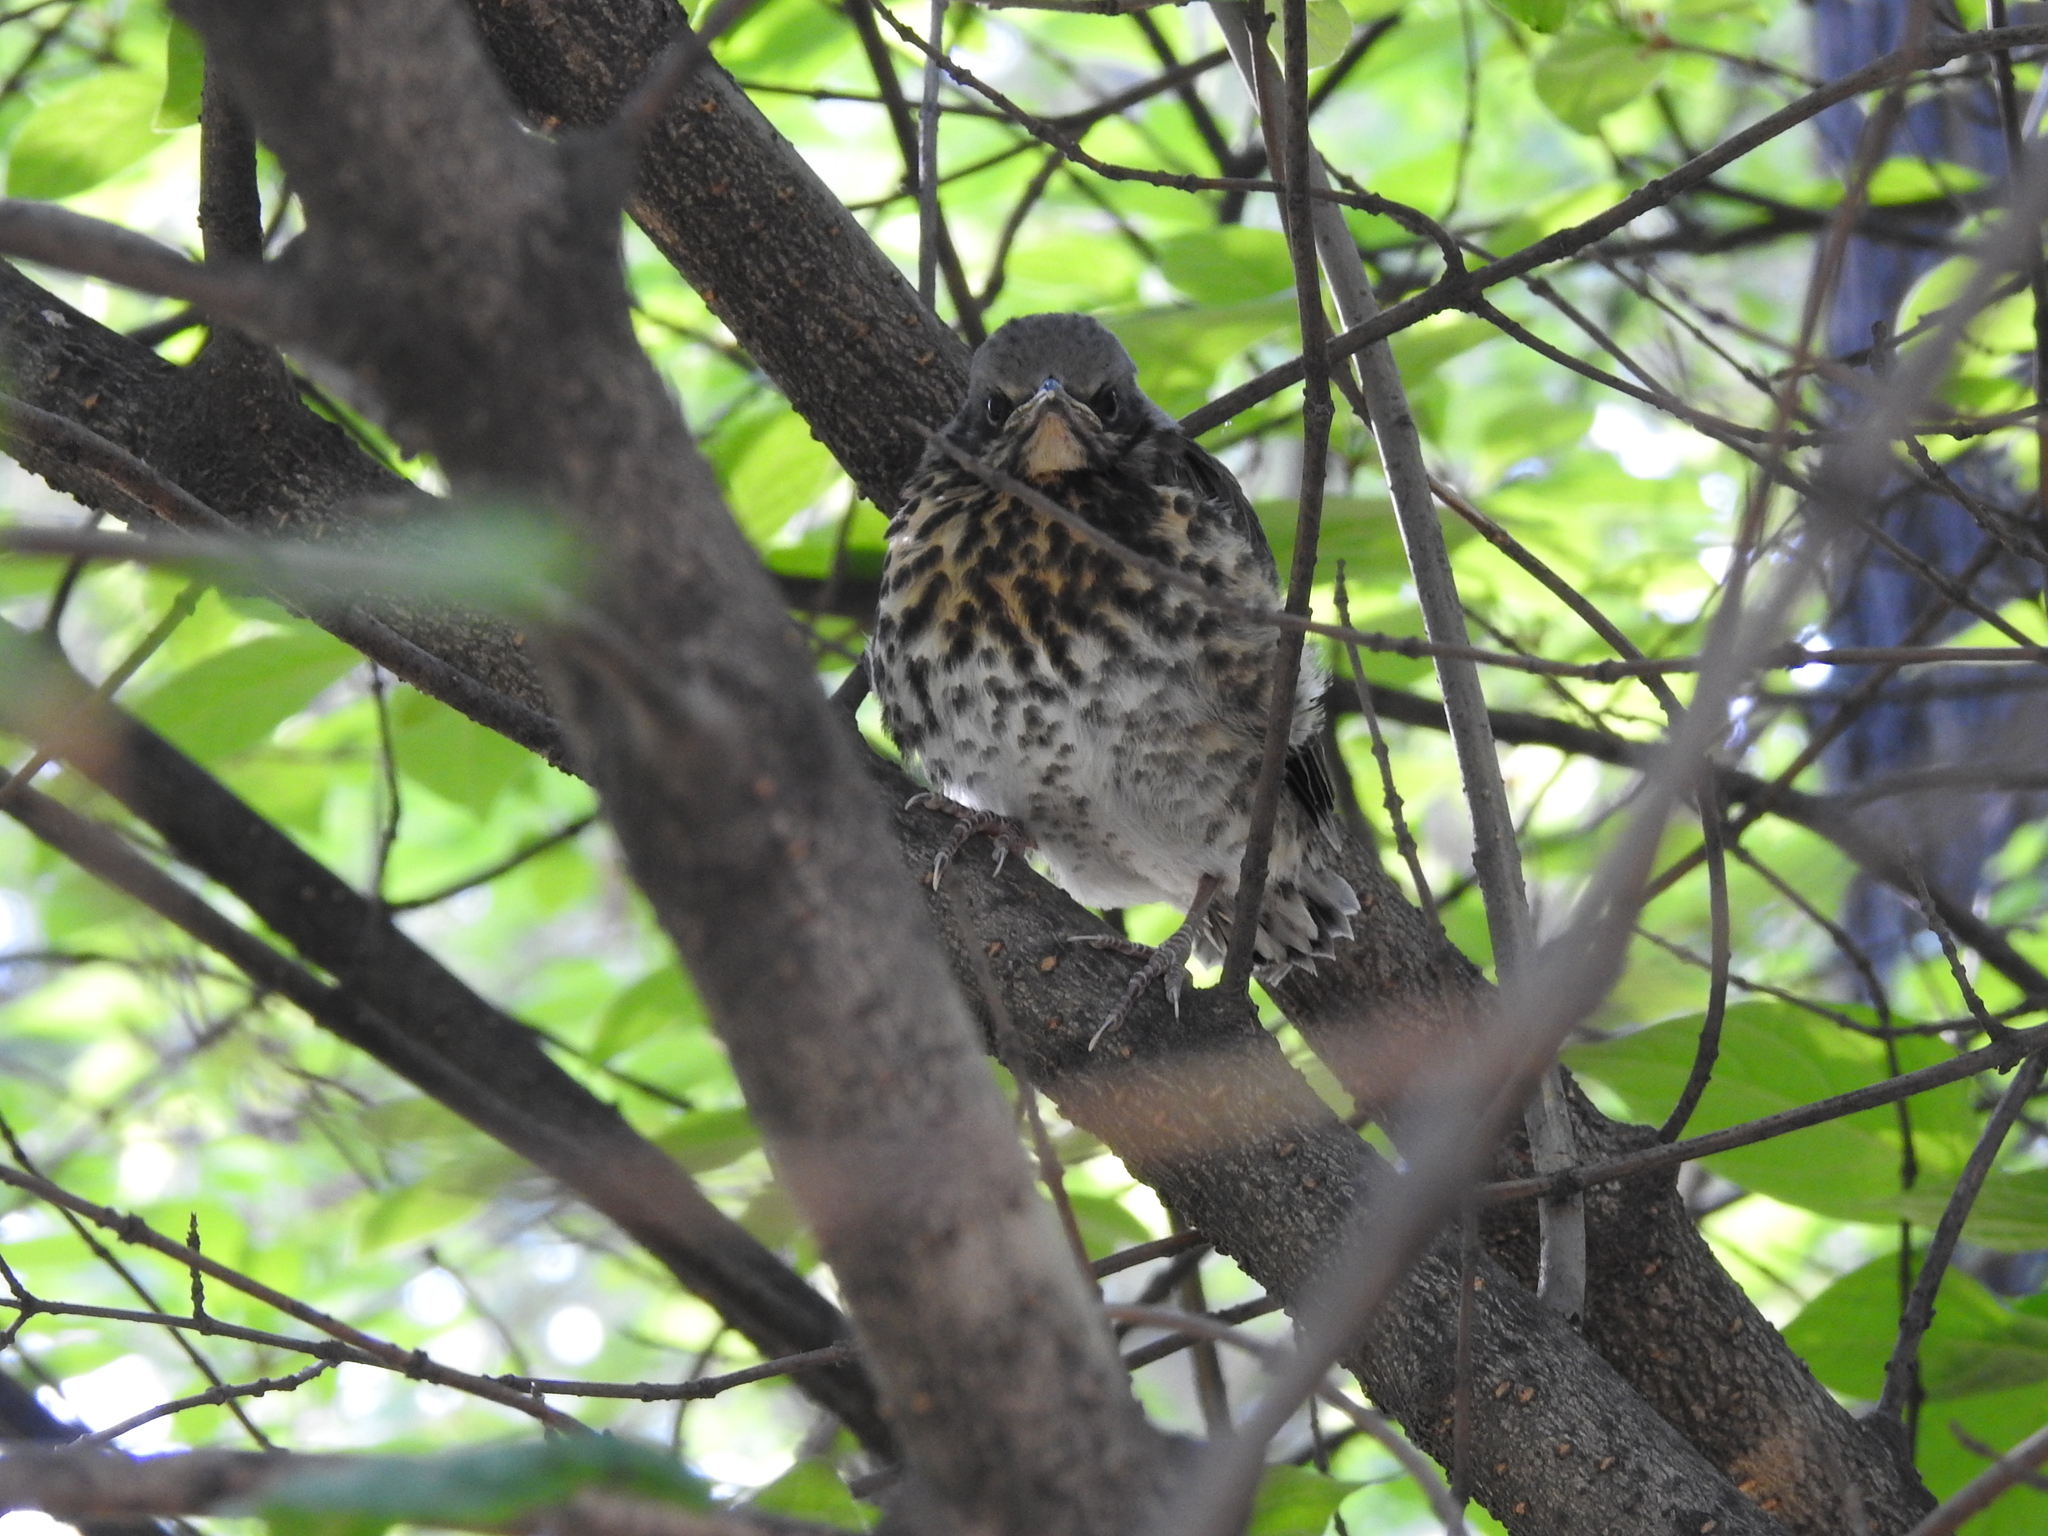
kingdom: Animalia
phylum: Chordata
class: Aves
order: Passeriformes
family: Turdidae
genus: Turdus
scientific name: Turdus pilaris
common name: Fieldfare
